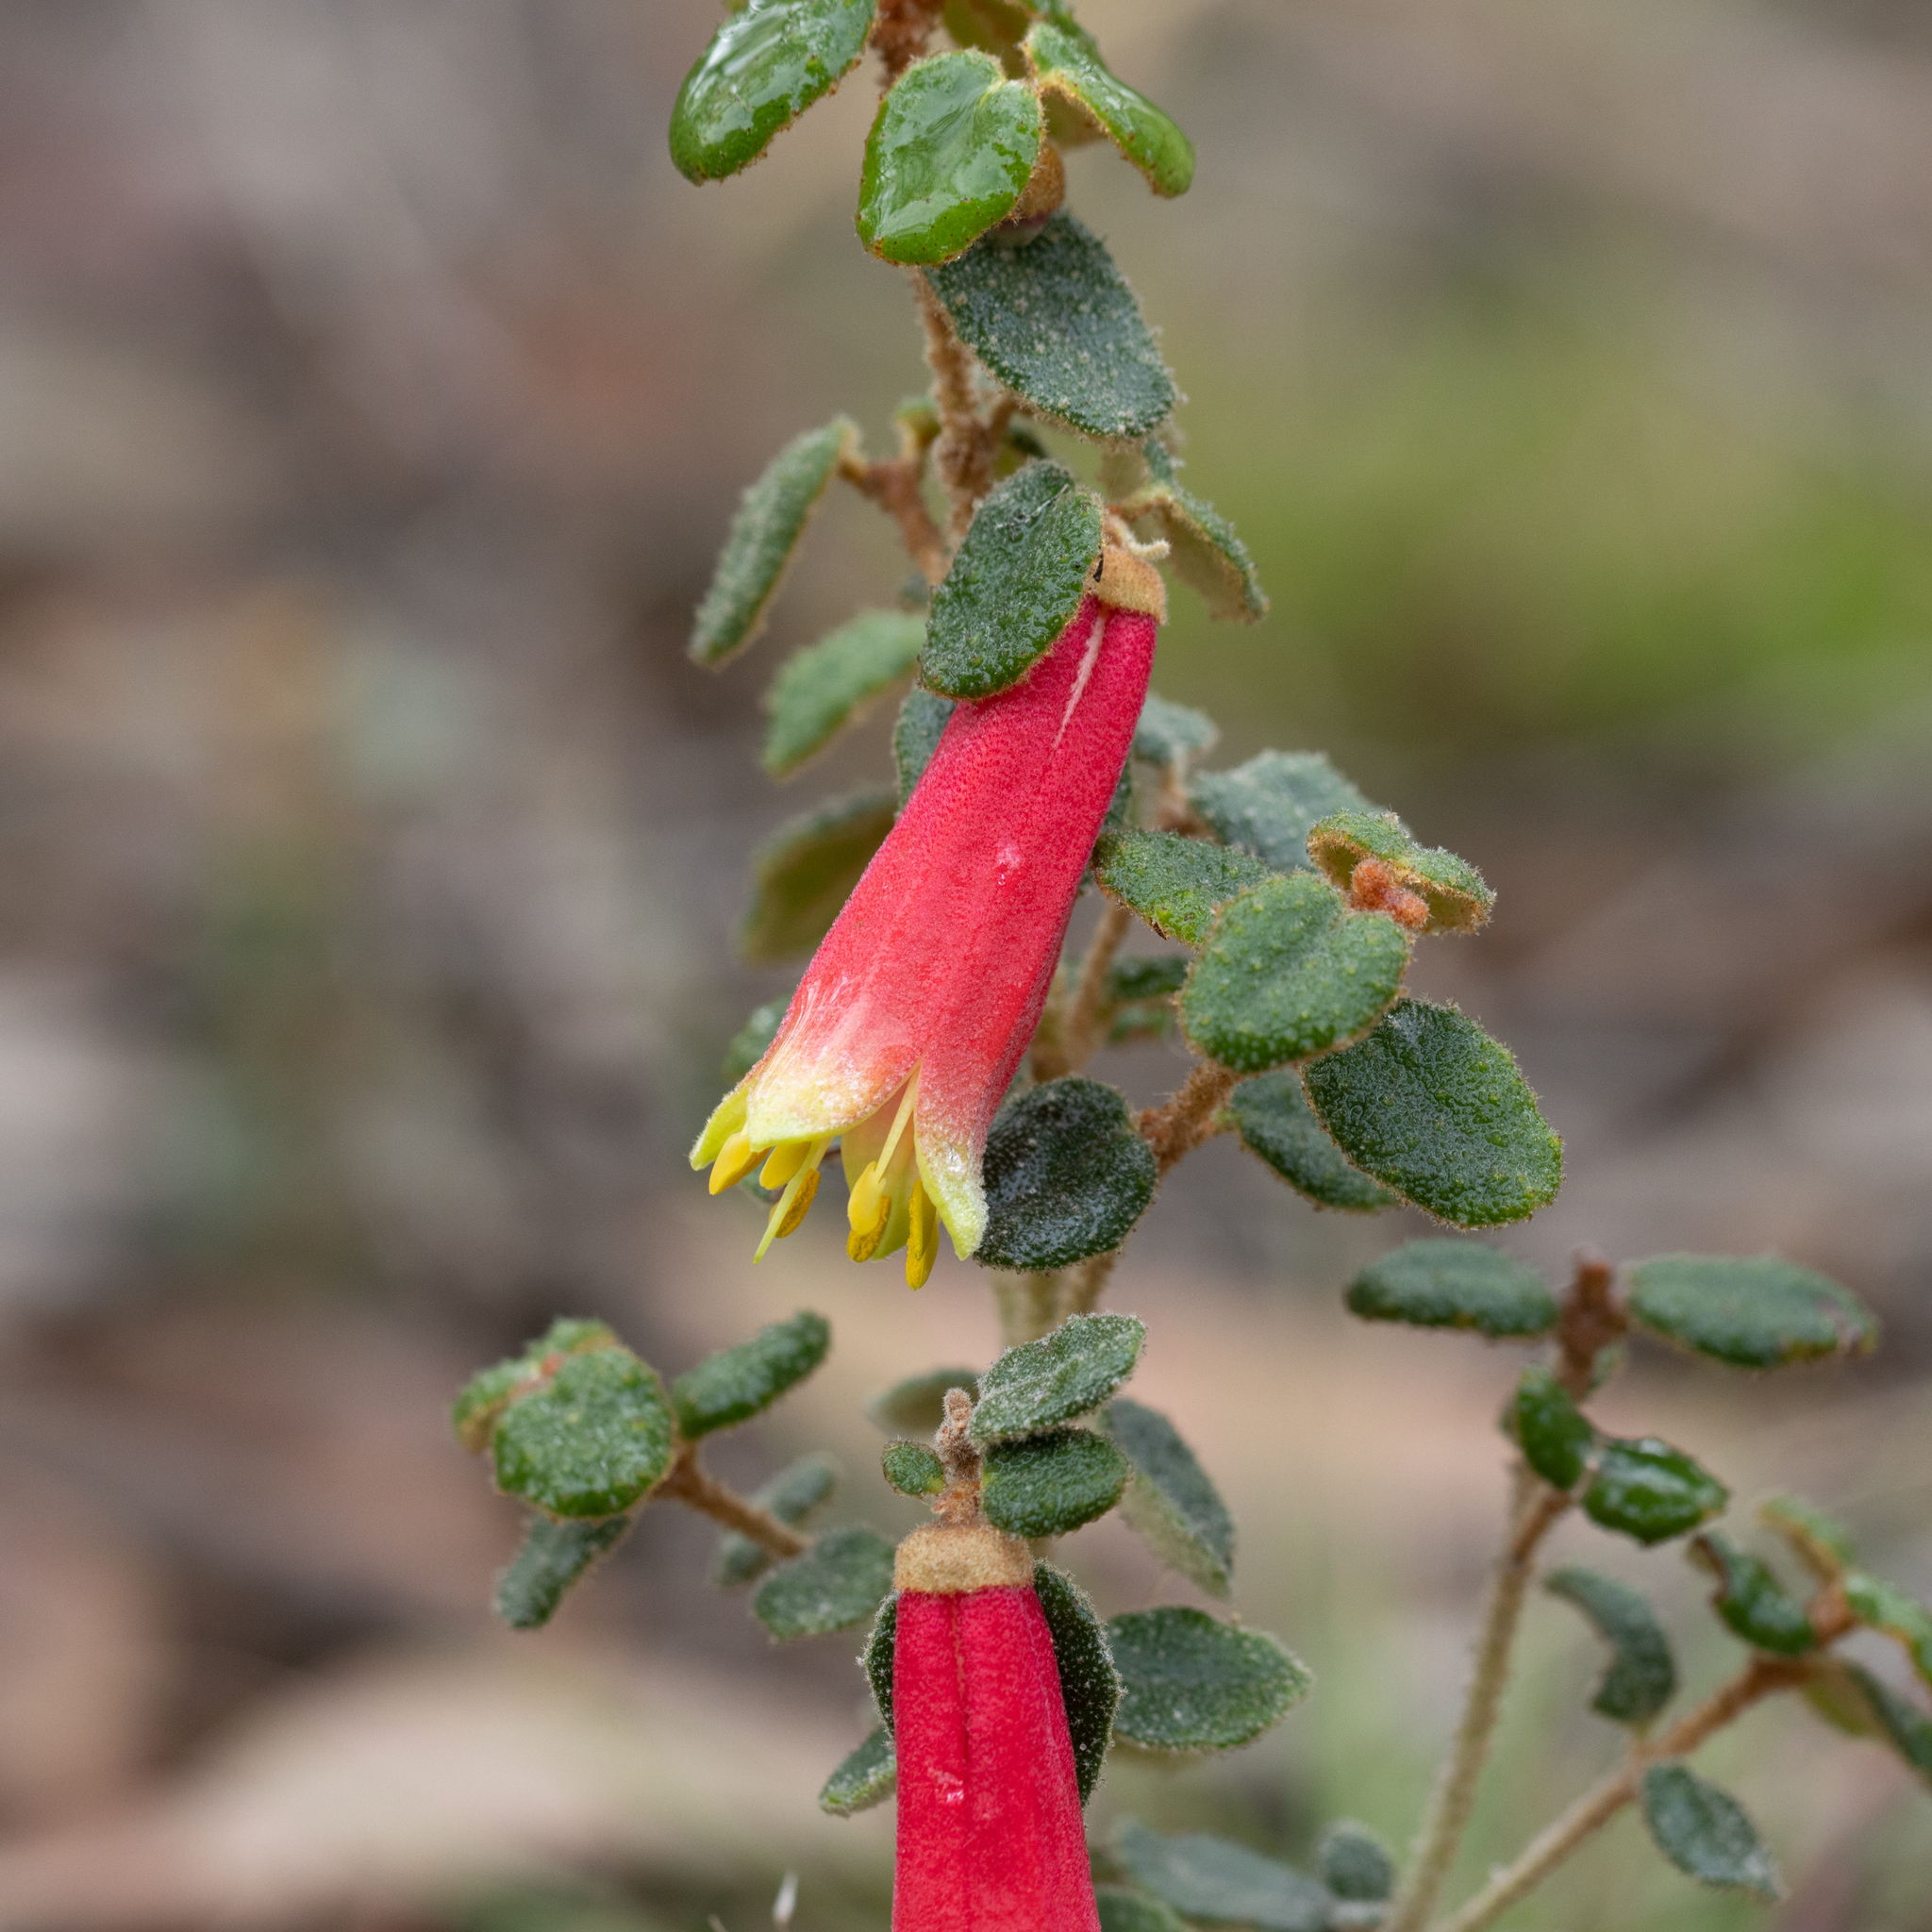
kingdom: Plantae
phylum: Tracheophyta
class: Magnoliopsida
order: Sapindales
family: Rutaceae
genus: Correa
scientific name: Correa reflexa
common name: Common correa
